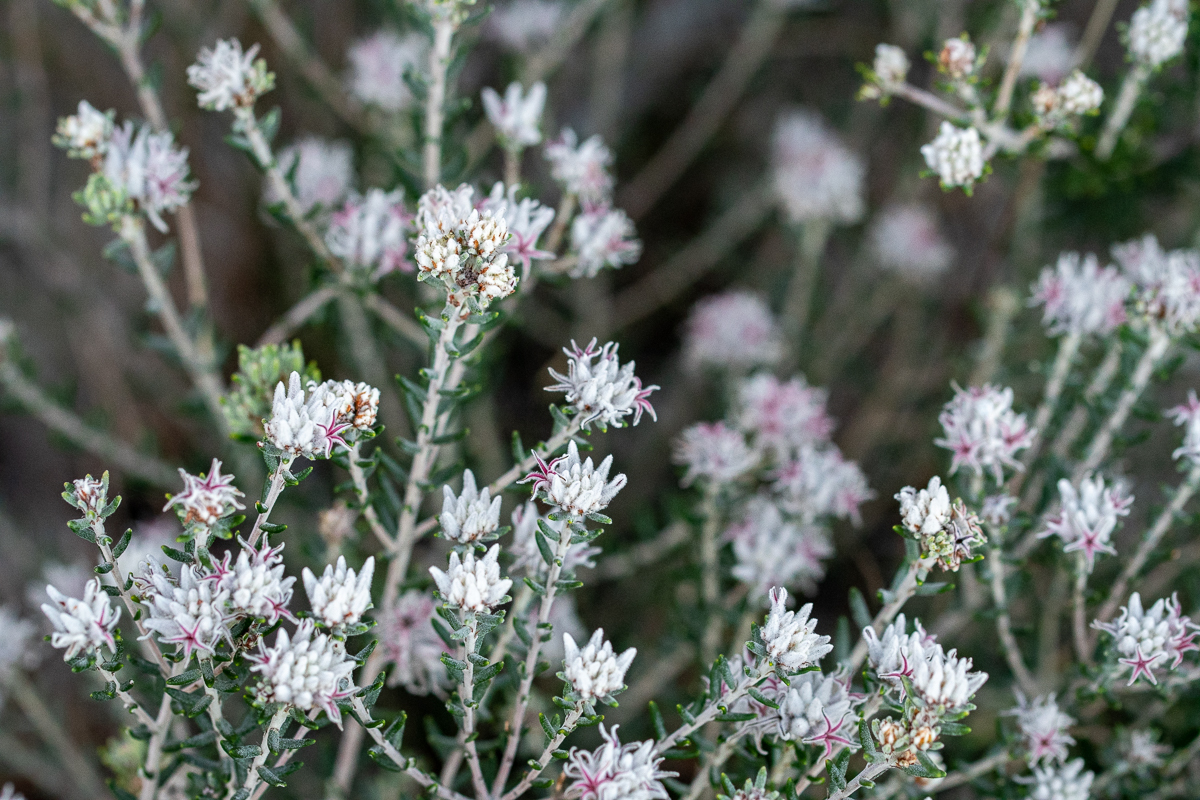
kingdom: Plantae
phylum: Tracheophyta
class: Magnoliopsida
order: Rosales
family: Rhamnaceae
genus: Trichocephalus
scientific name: Trichocephalus stipularis
